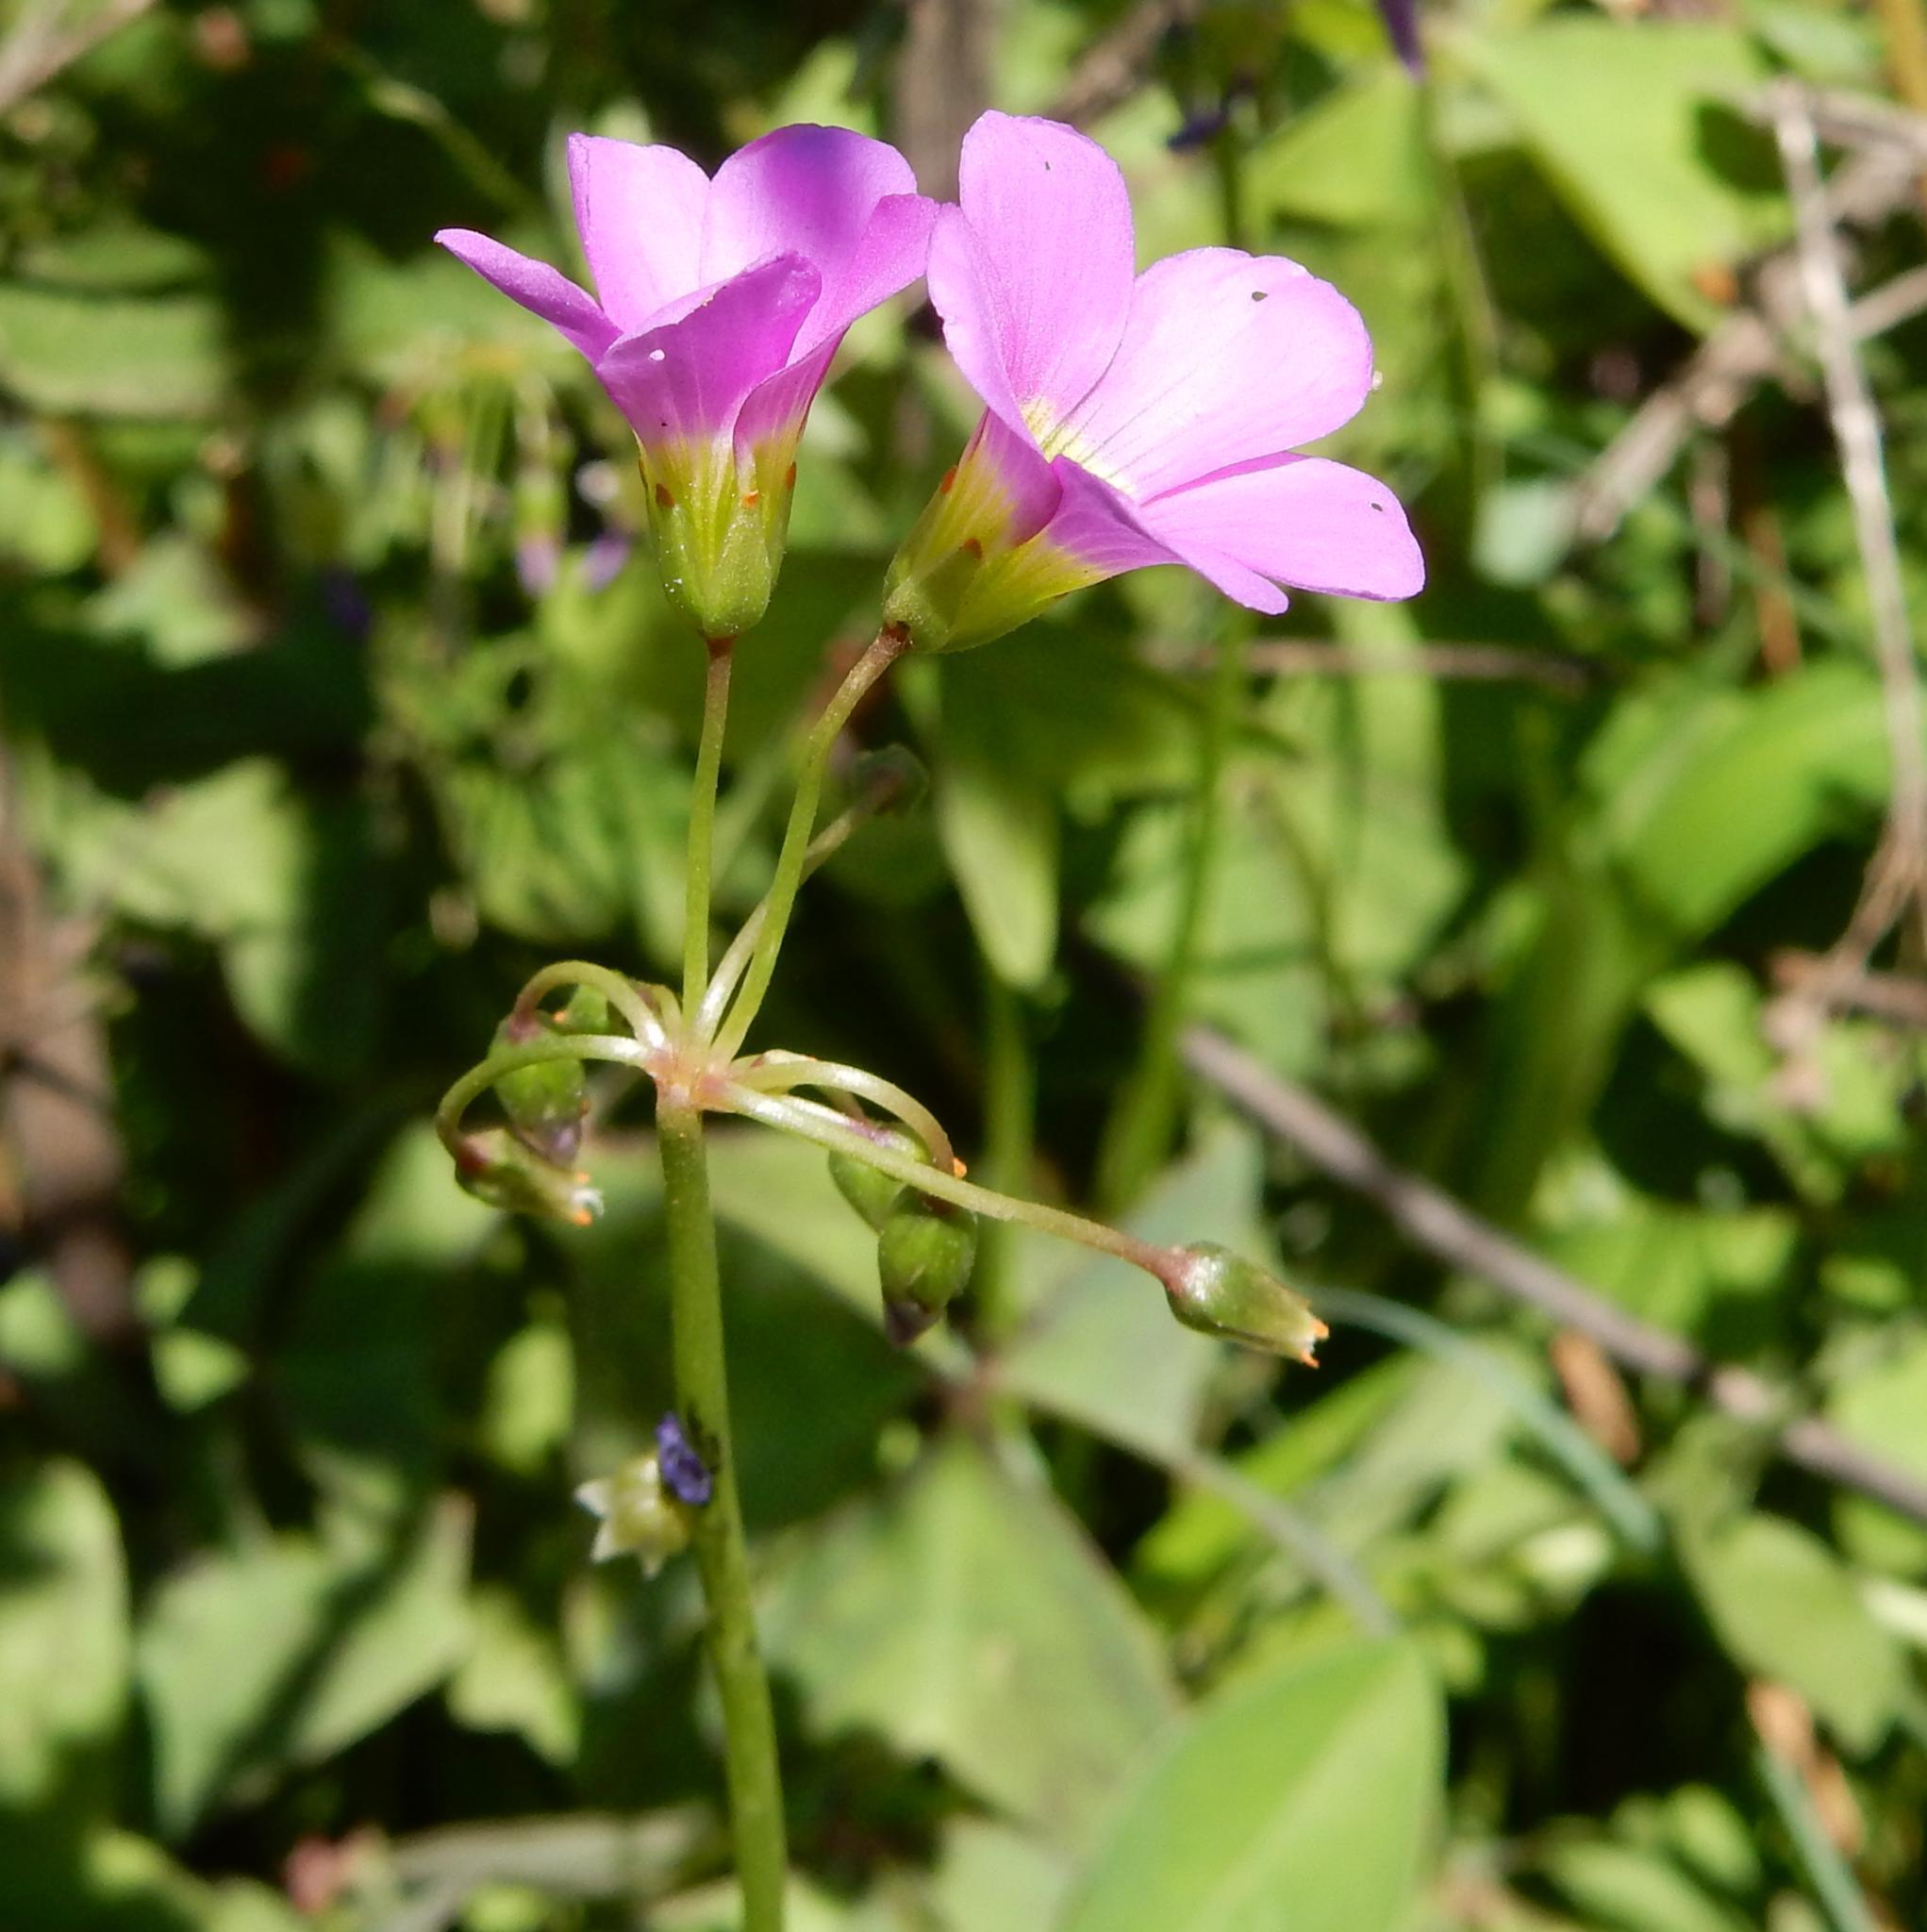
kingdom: Plantae
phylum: Tracheophyta
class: Magnoliopsida
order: Oxalidales
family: Oxalidaceae
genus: Oxalis
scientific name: Oxalis latifolia
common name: Garden pink-sorrel
